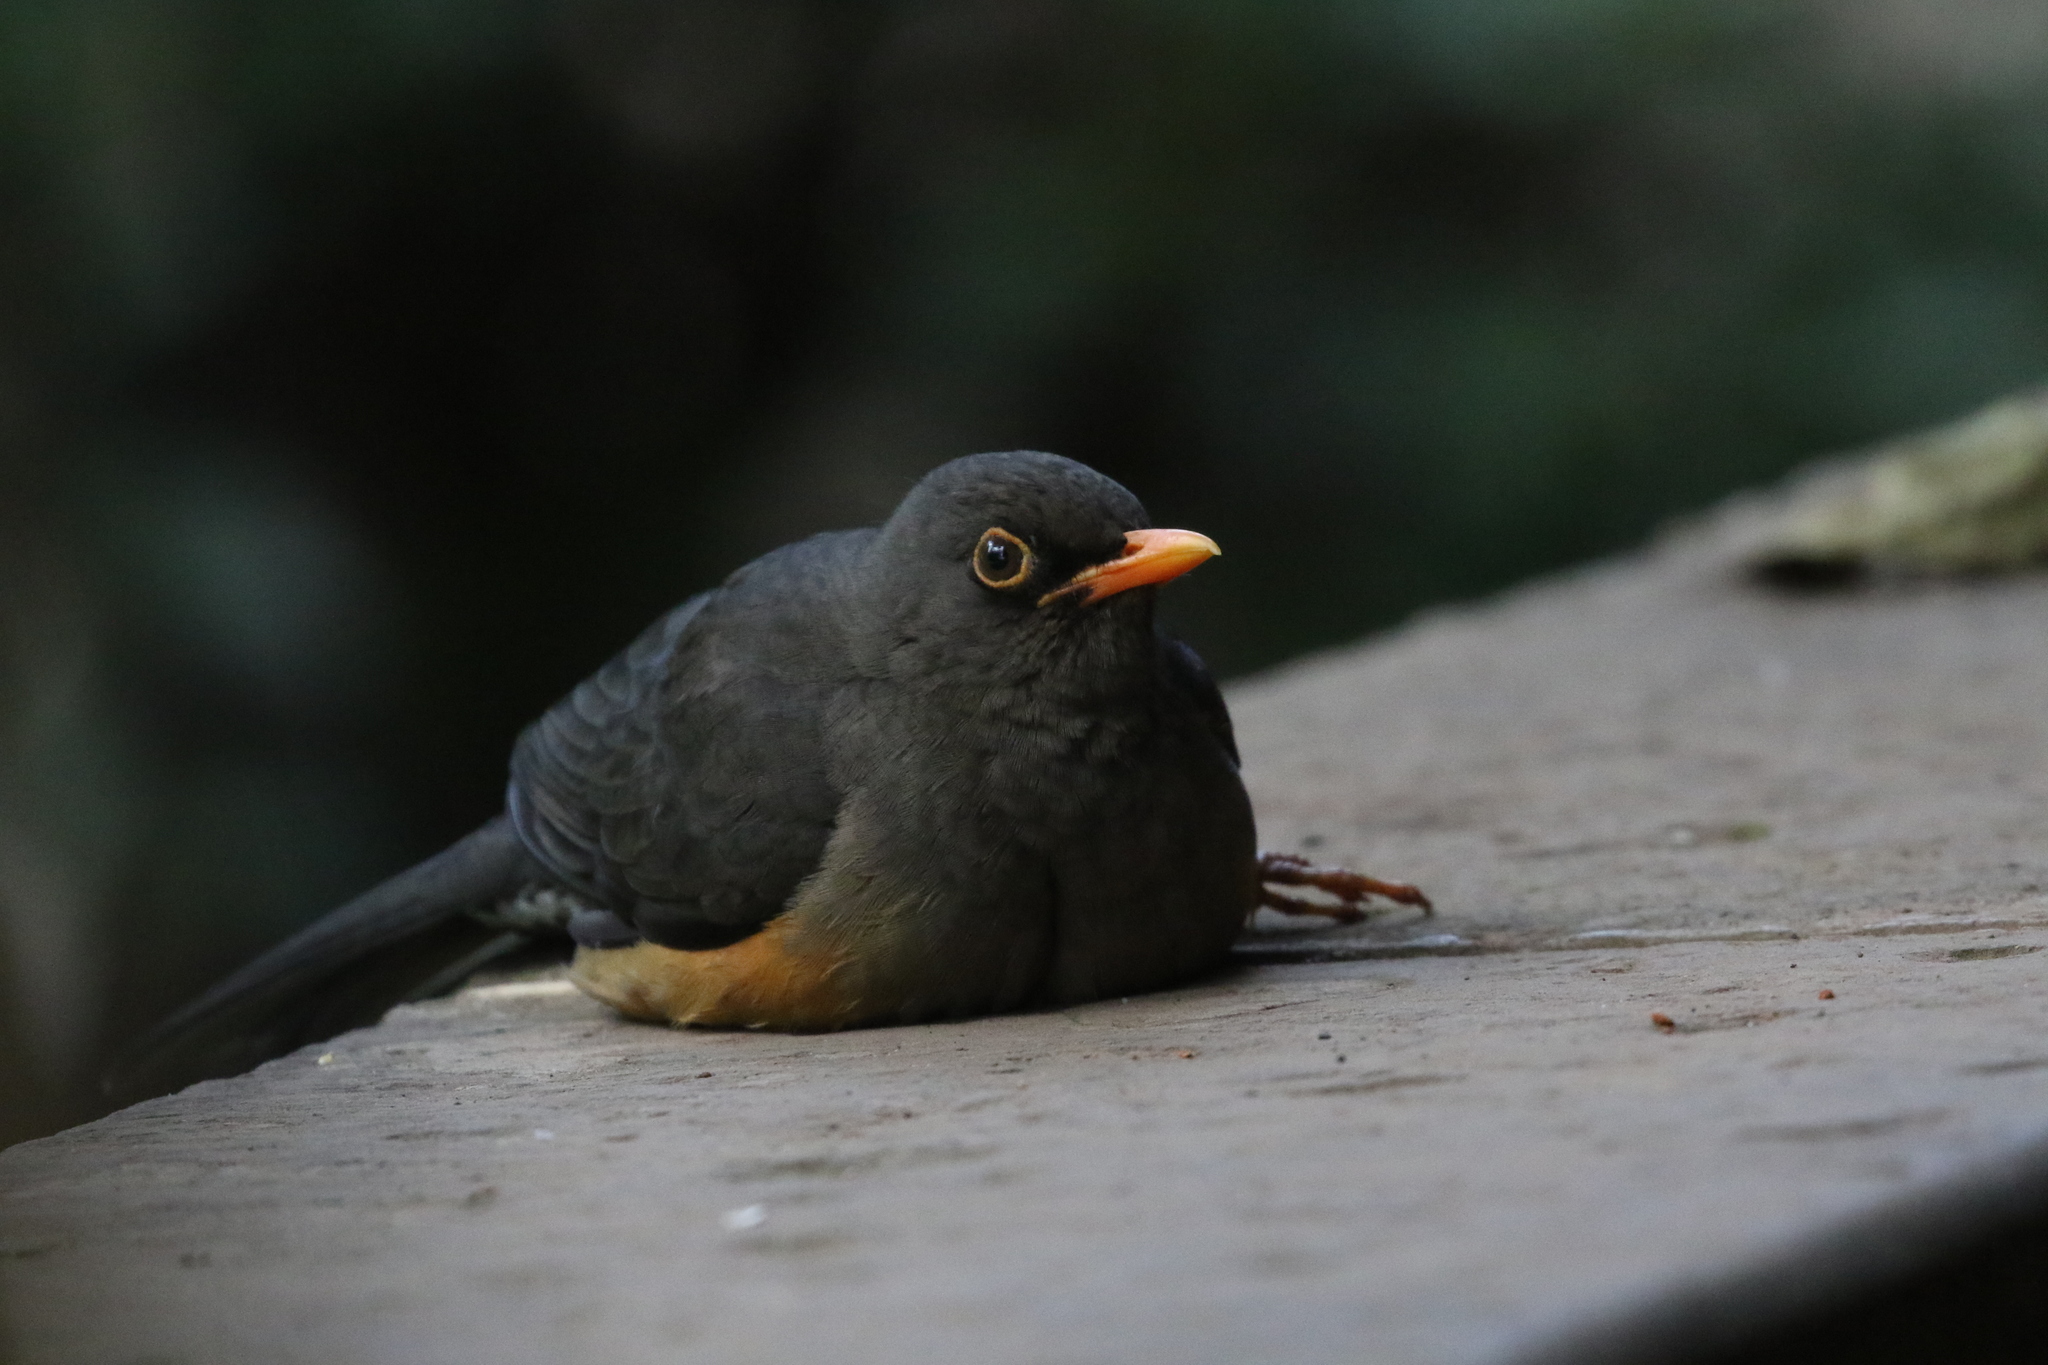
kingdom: Animalia
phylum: Chordata
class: Aves
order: Passeriformes
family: Turdidae
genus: Turdus
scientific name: Turdus abyssinicus
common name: Abyssinian thrush
